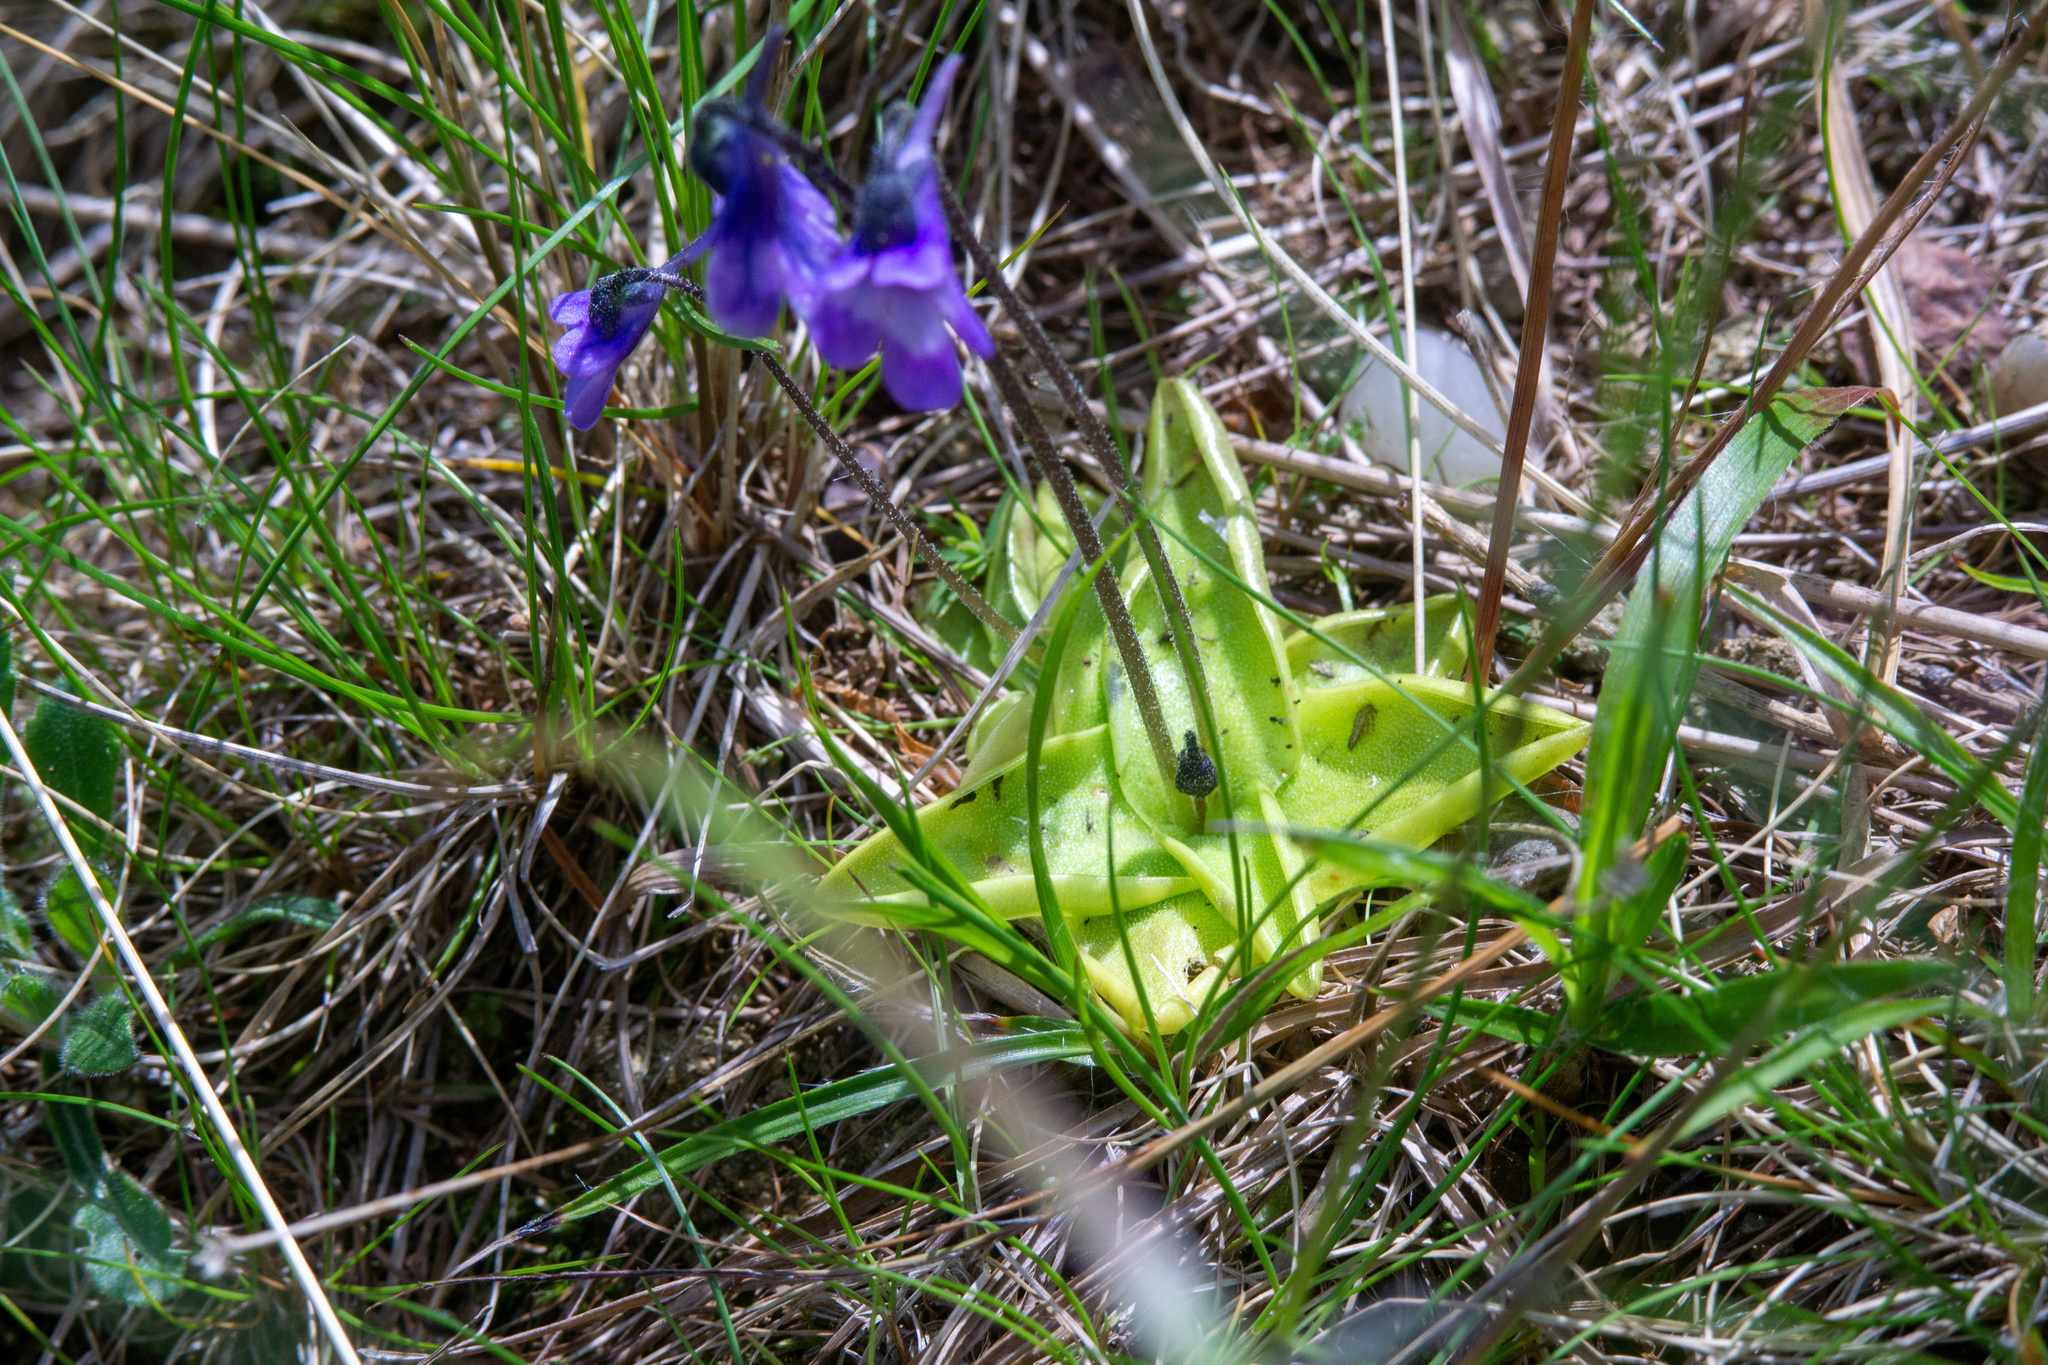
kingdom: Plantae
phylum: Tracheophyta
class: Magnoliopsida
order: Lamiales
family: Lentibulariaceae
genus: Pinguicula
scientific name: Pinguicula vulgaris
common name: Common butterwort
